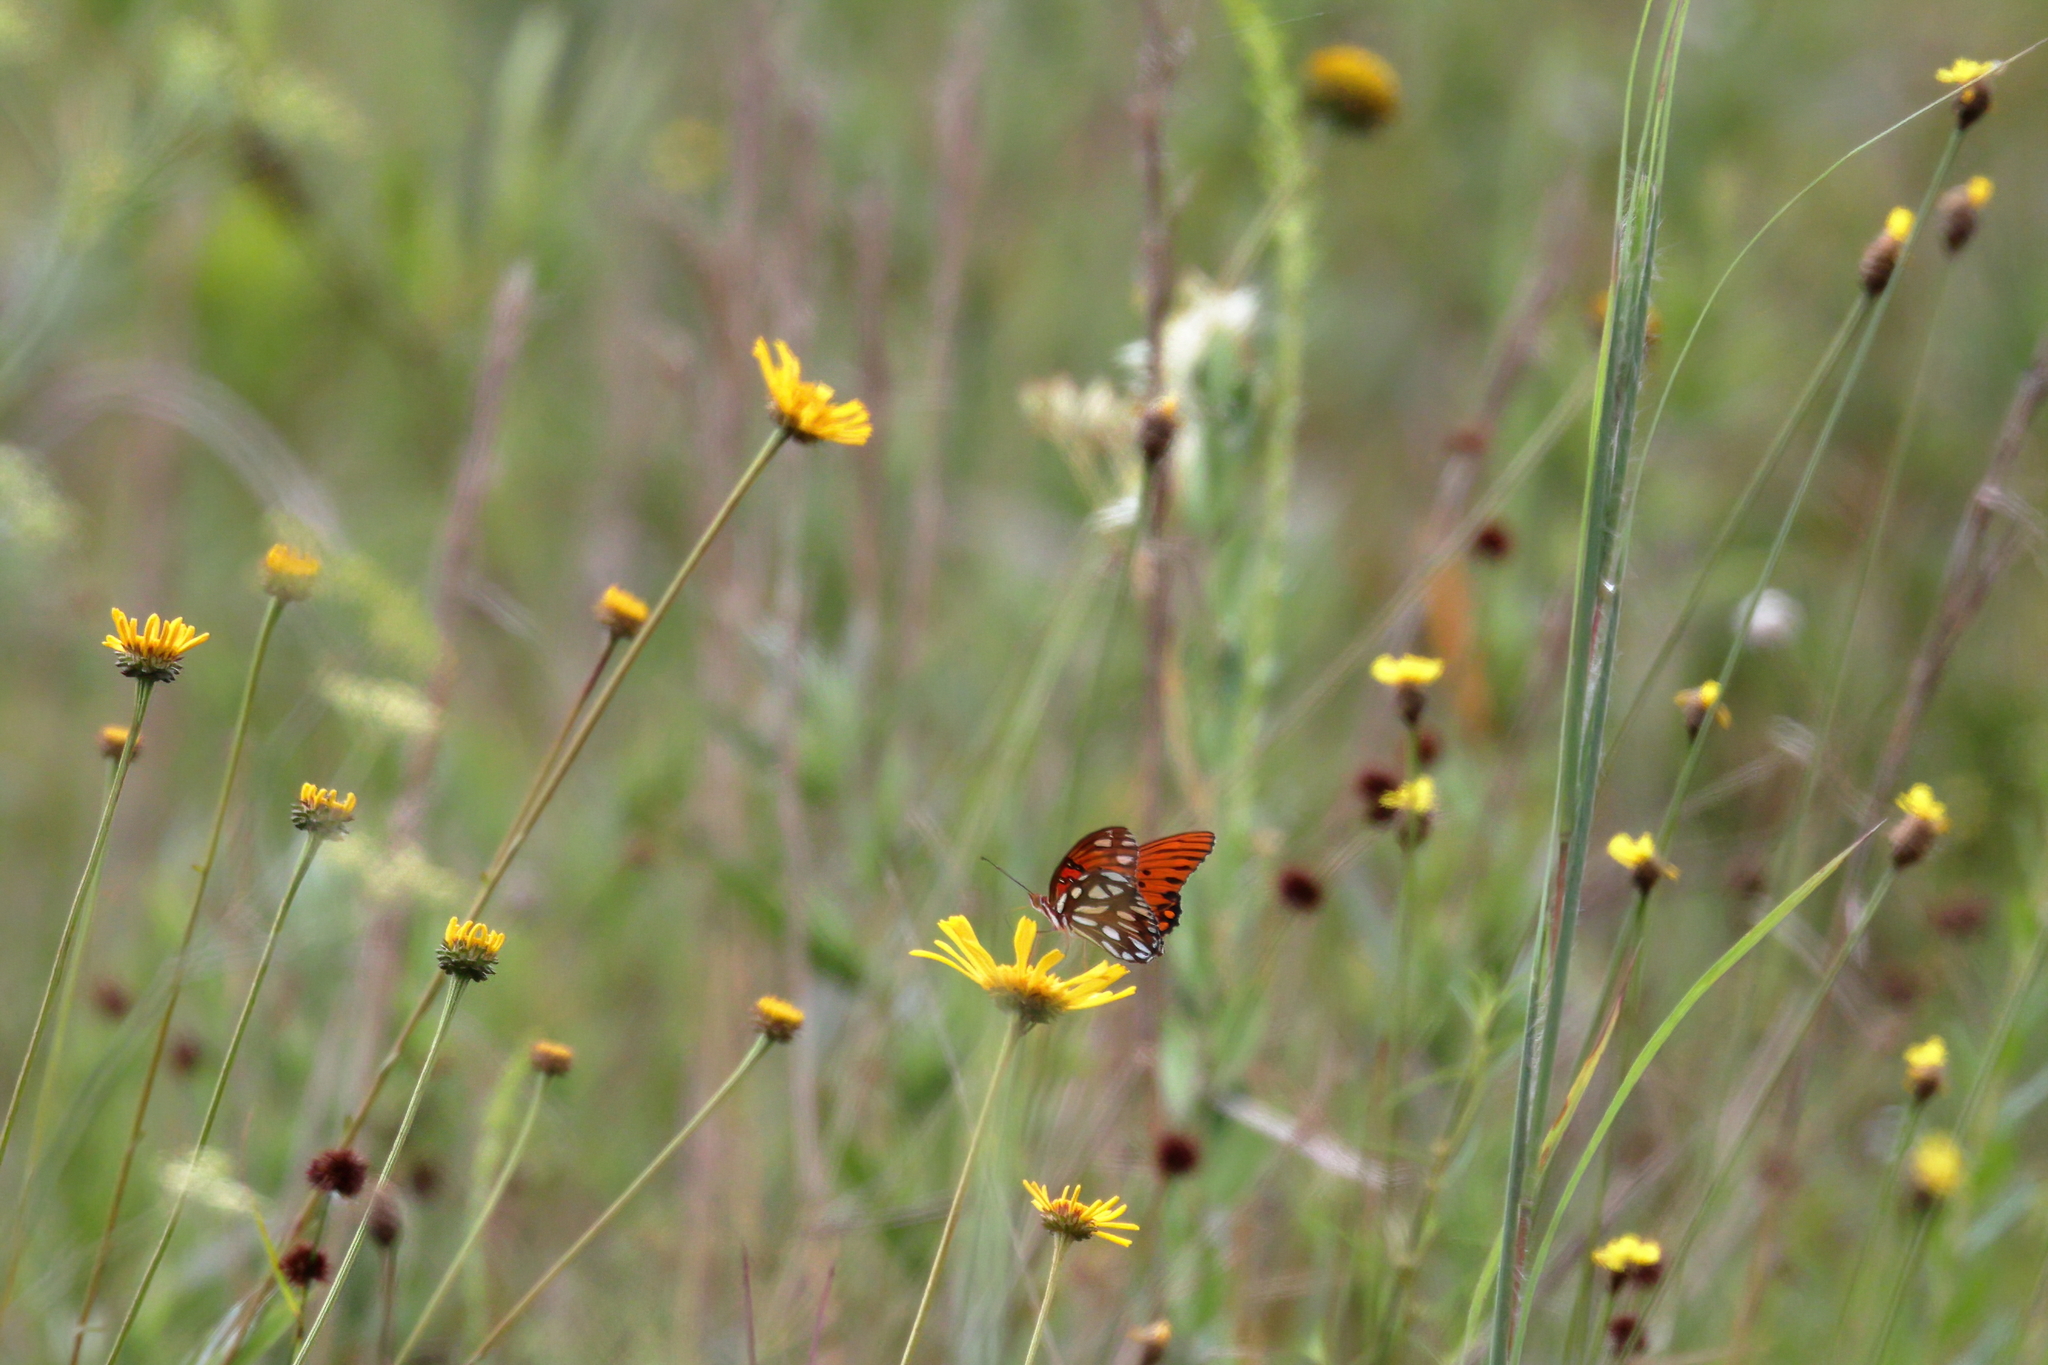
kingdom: Animalia
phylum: Arthropoda
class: Insecta
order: Lepidoptera
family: Nymphalidae
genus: Dione
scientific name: Dione vanillae
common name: Gulf fritillary
